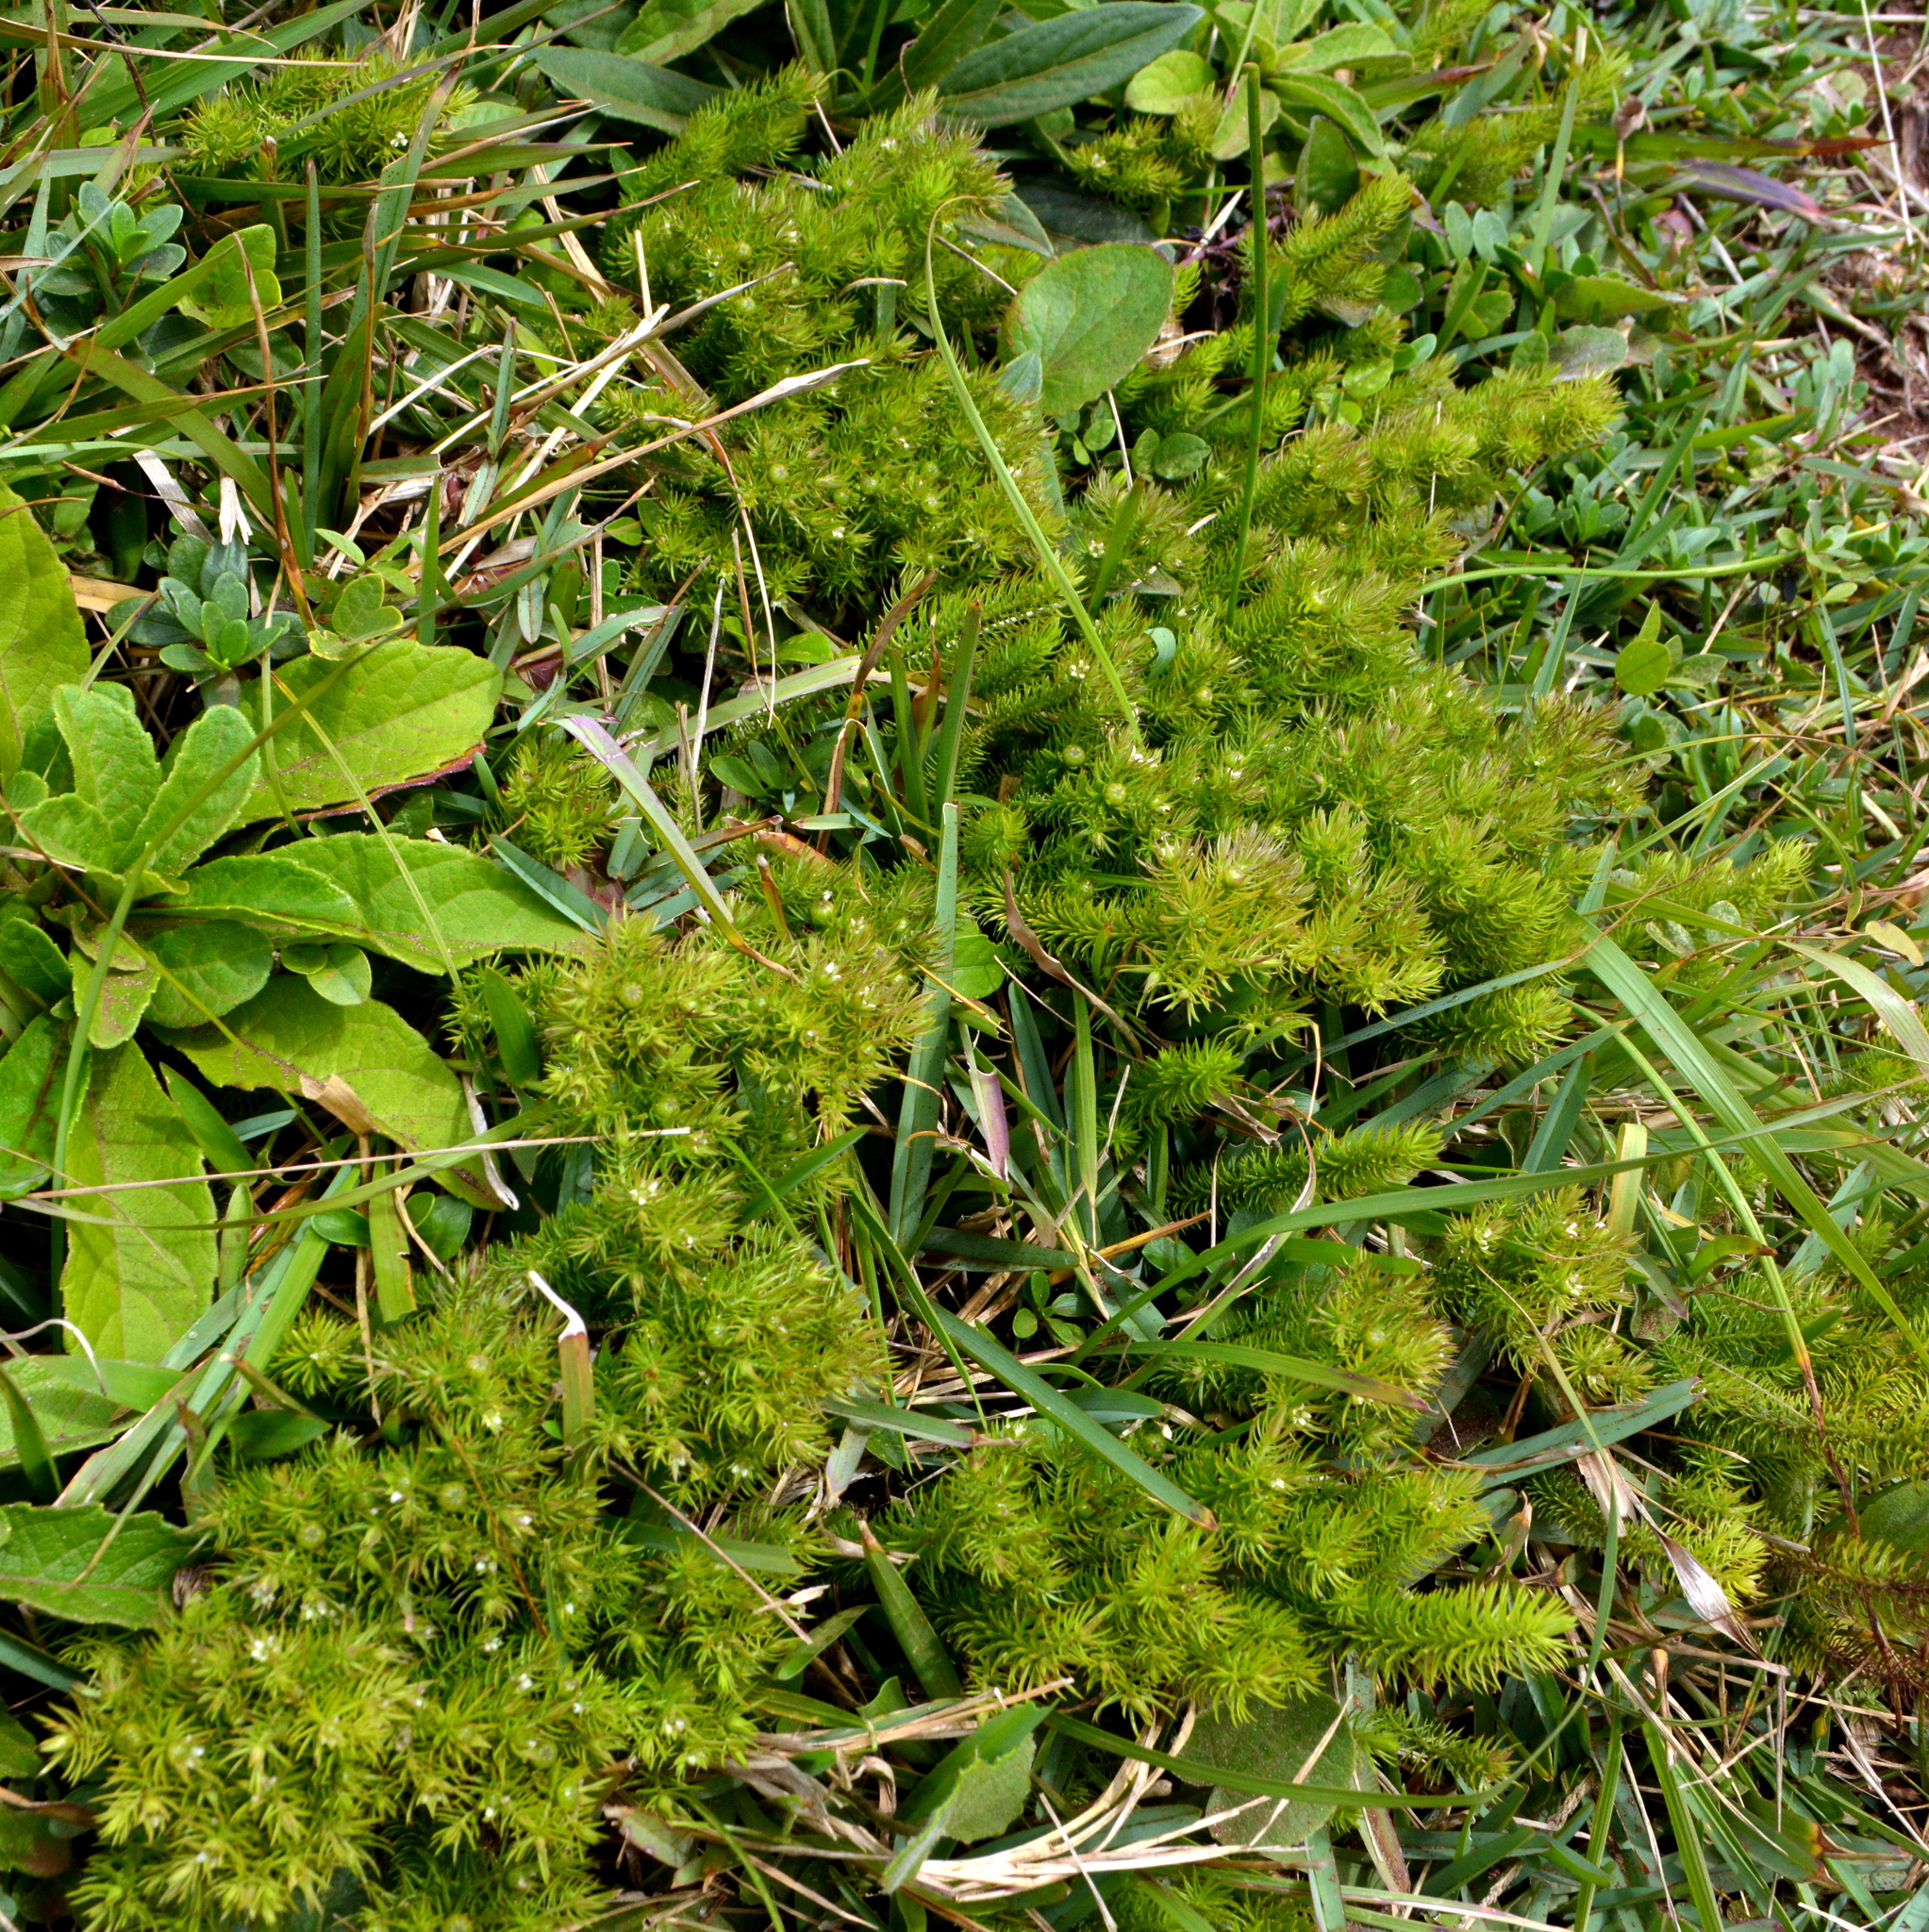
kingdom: Plantae
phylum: Tracheophyta
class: Magnoliopsida
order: Malpighiales
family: Linaceae
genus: Cliococca
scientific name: Cliococca selaginoides
